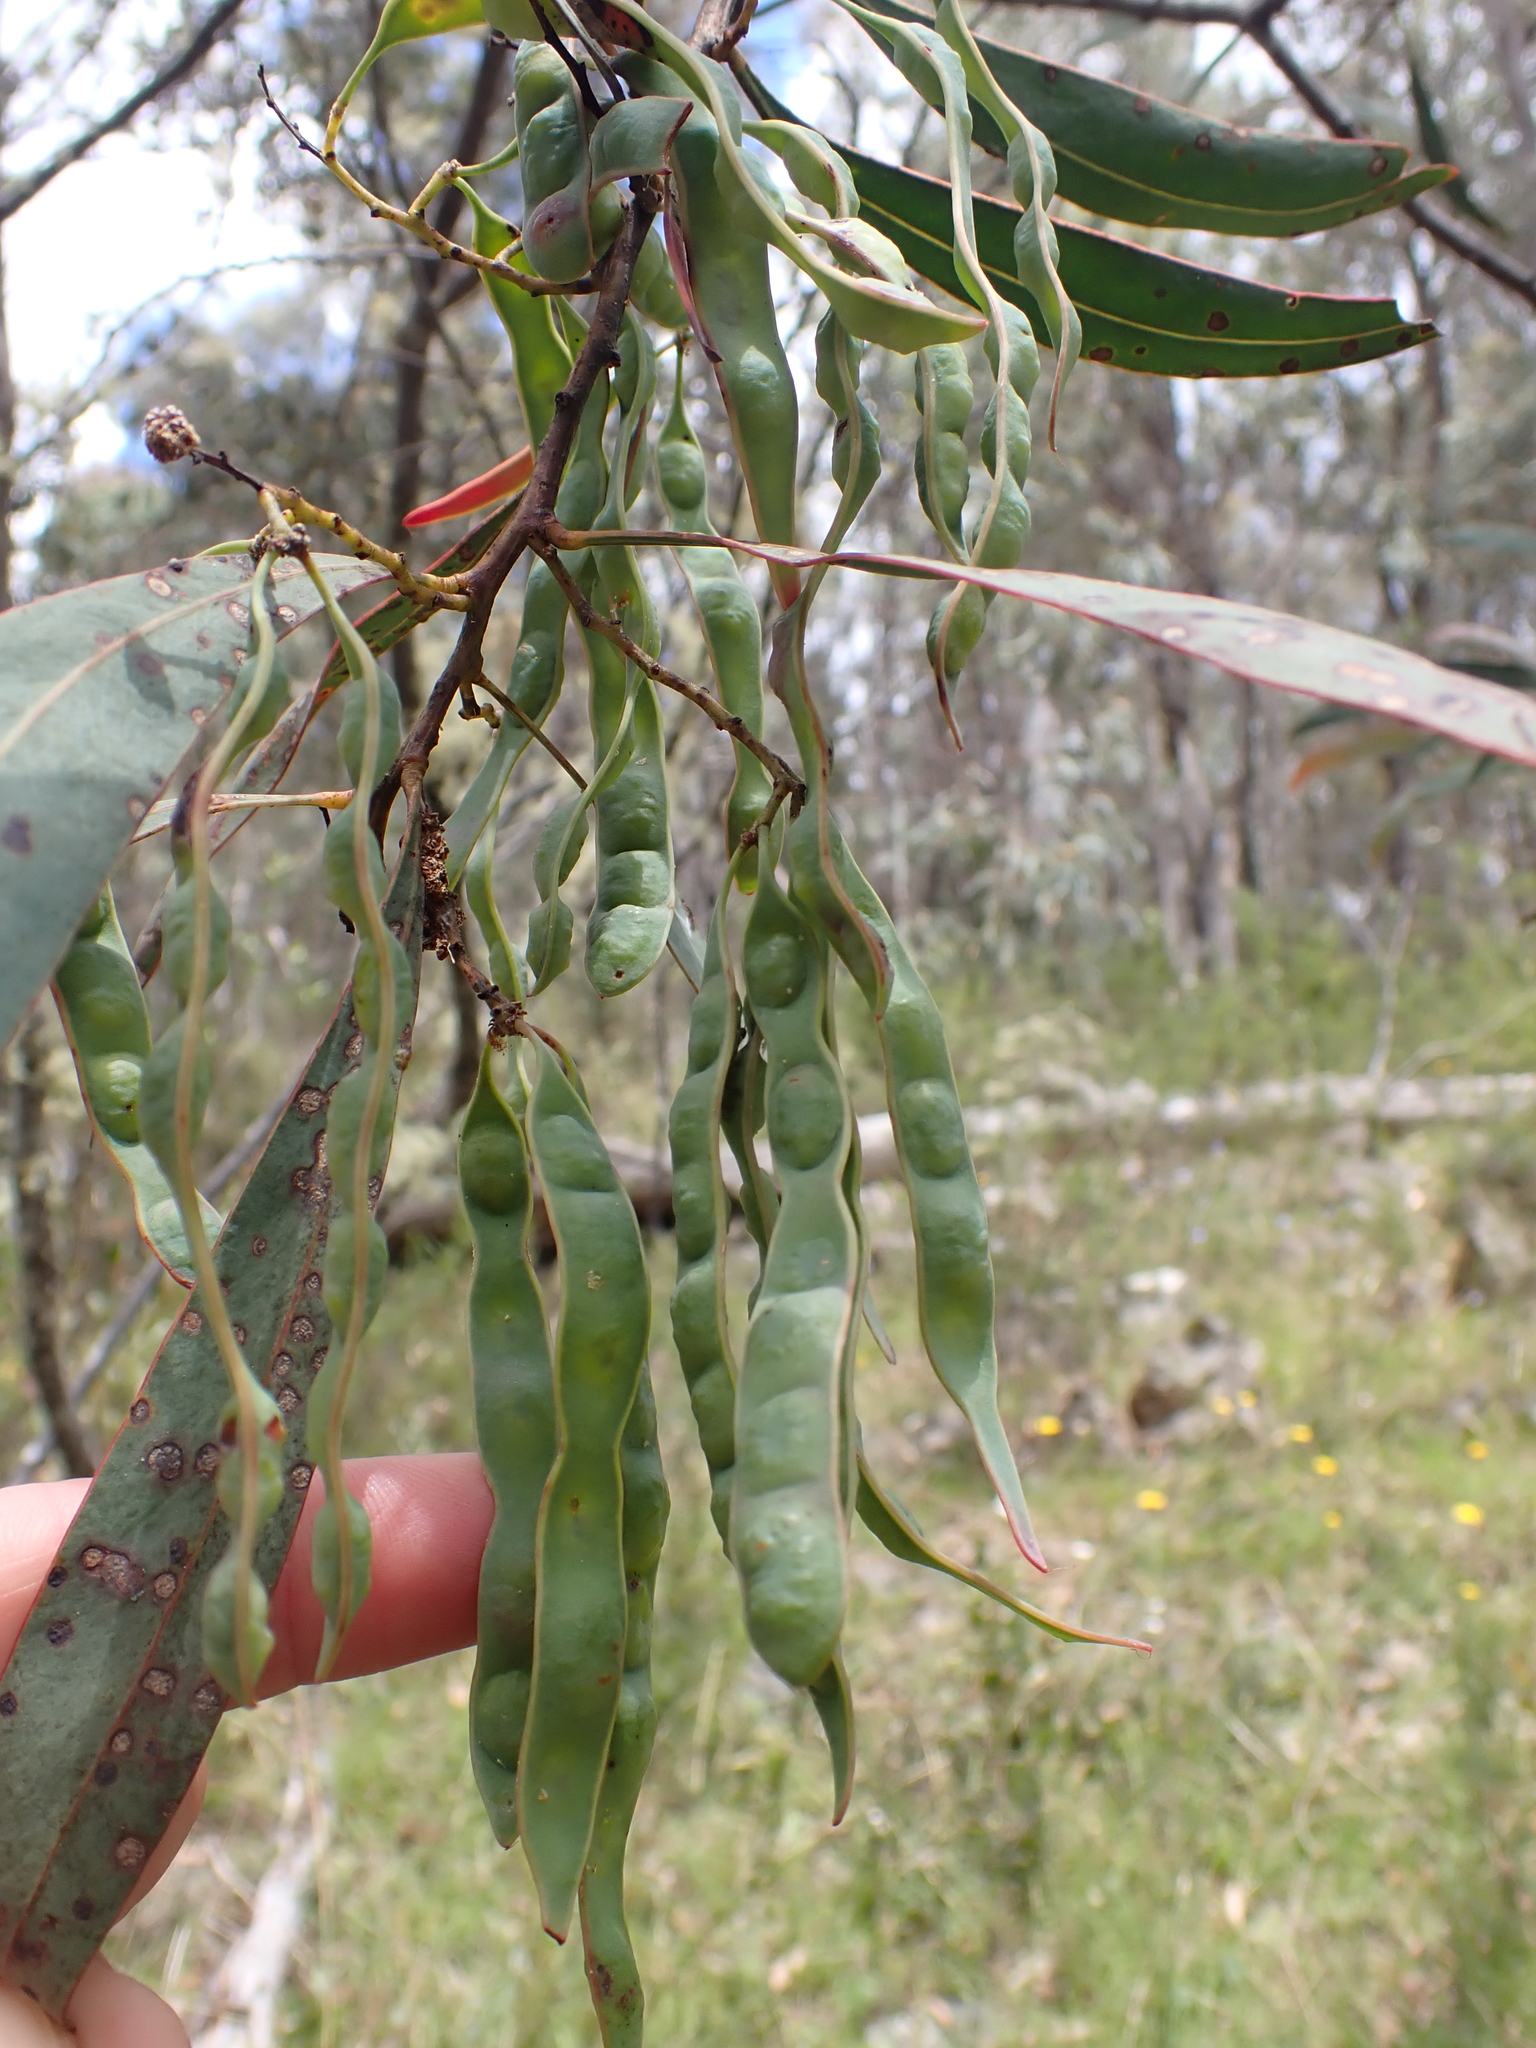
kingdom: Plantae
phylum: Tracheophyta
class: Magnoliopsida
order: Fabales
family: Fabaceae
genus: Acacia
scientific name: Acacia obliquinervia
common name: Mountain hickory wattle
